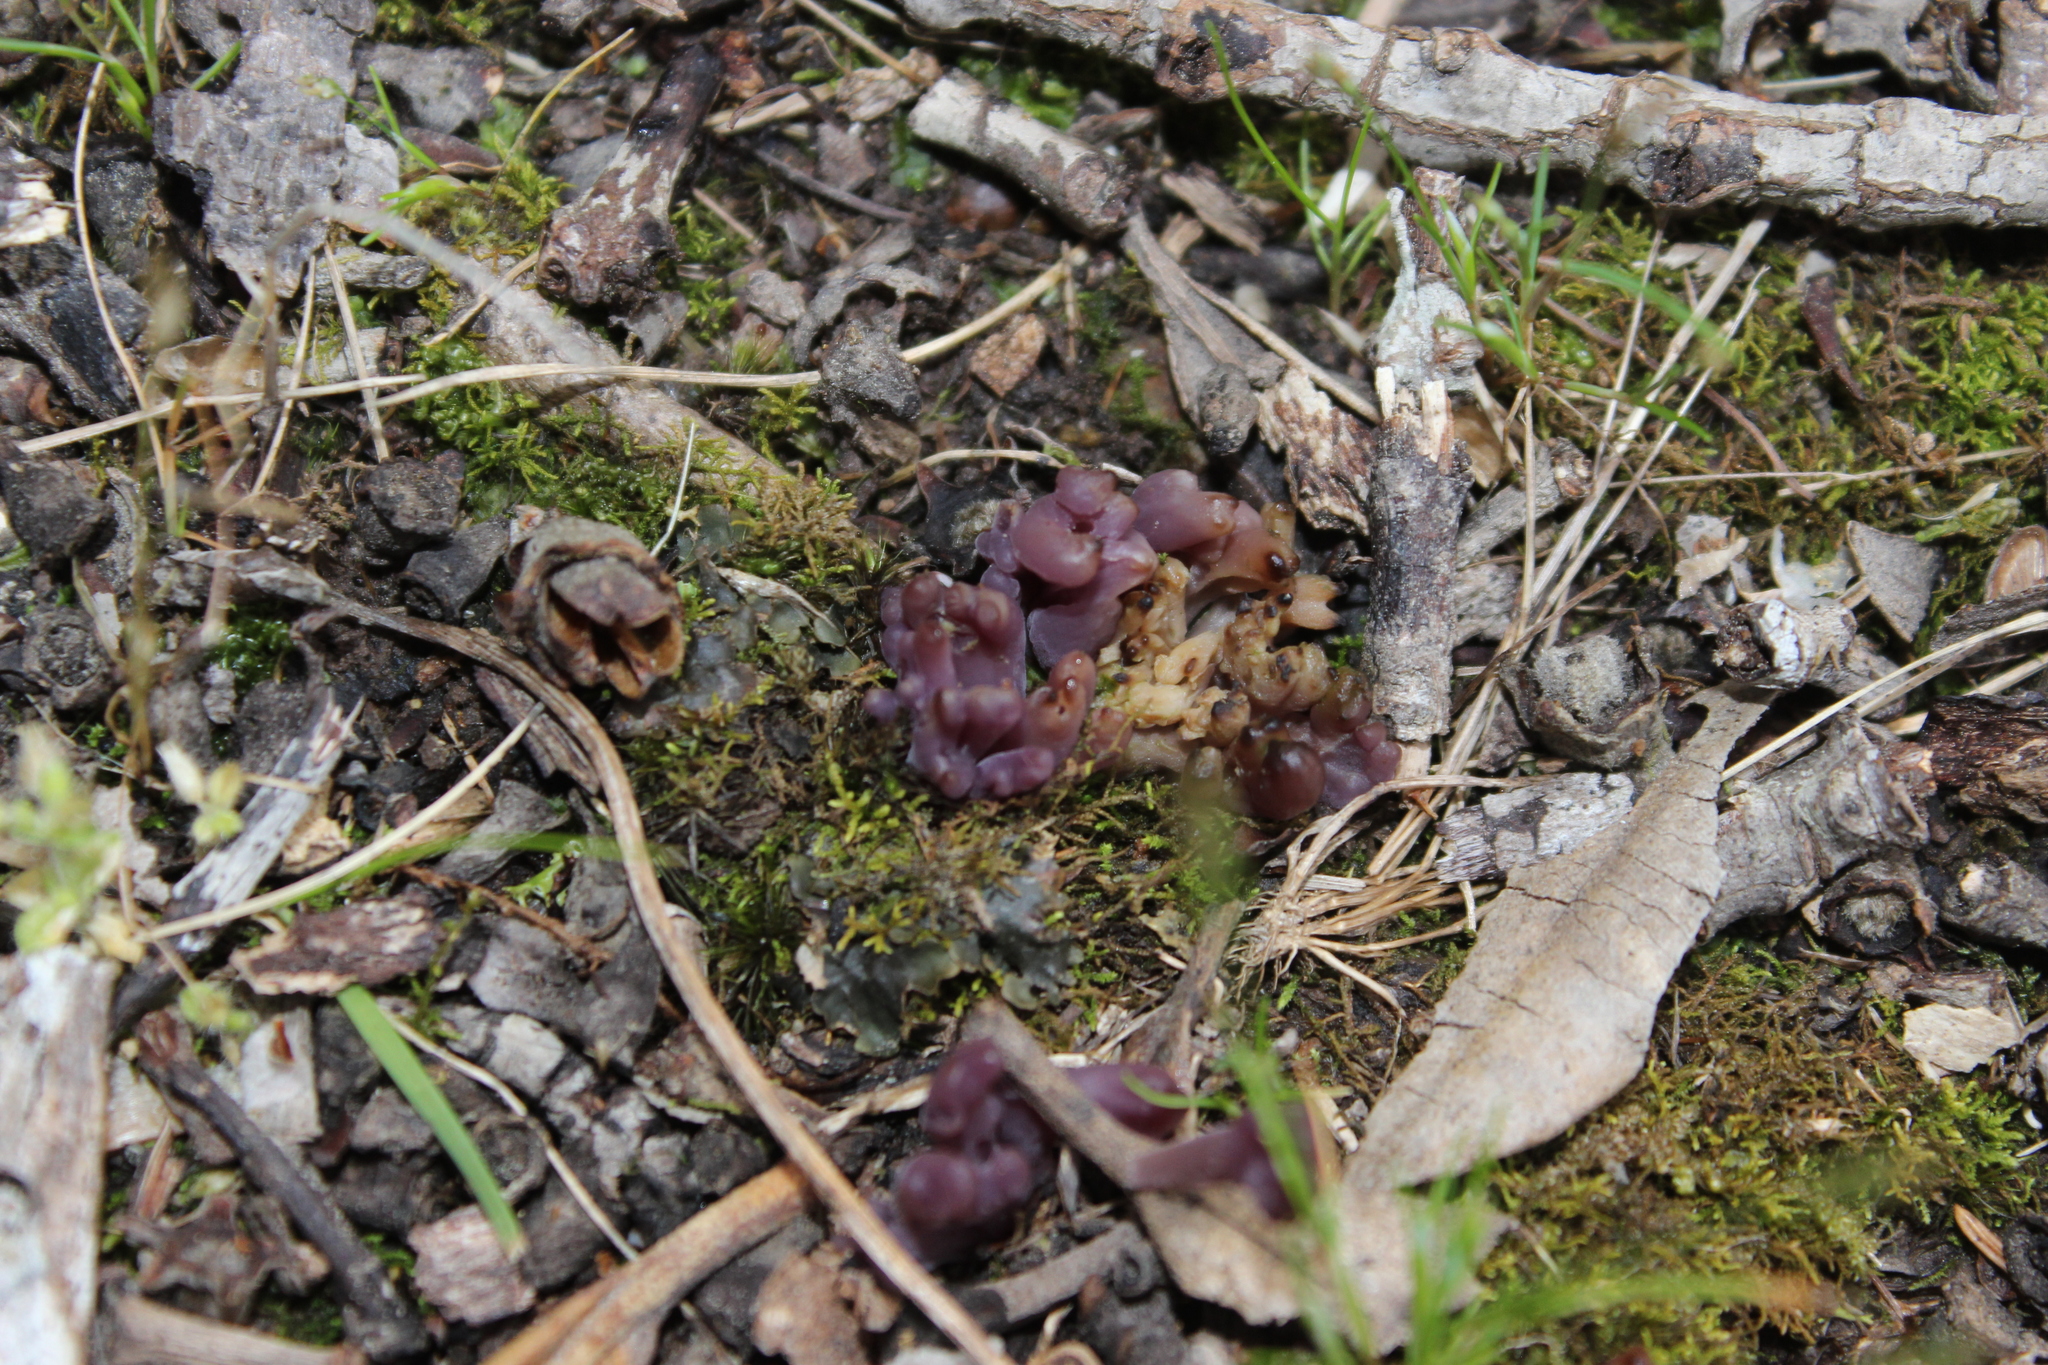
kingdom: Fungi
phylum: Basidiomycota
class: Agaricomycetes
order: Agaricales
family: Clavariaceae
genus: Clavaria
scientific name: Clavaria zollingeri
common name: Violet coral
